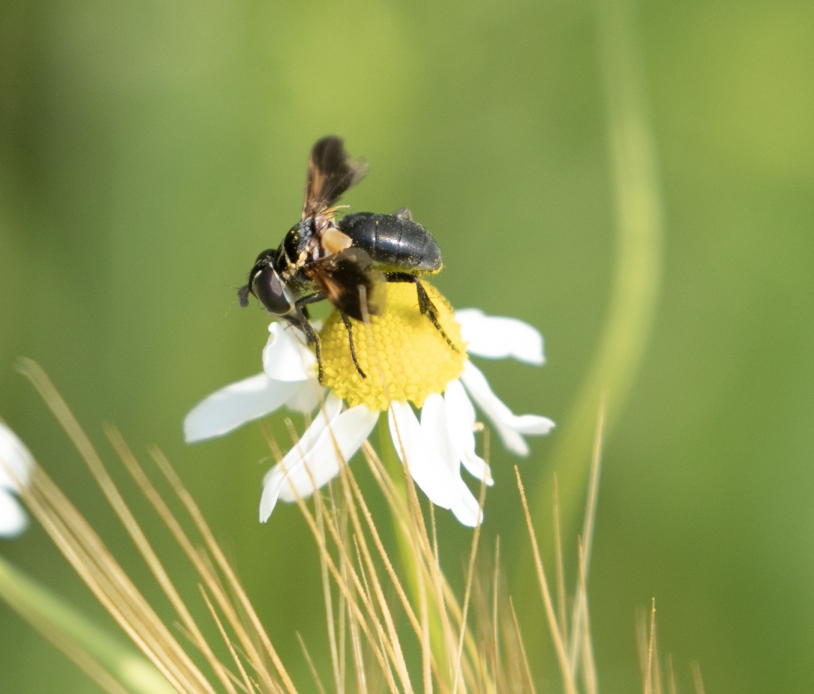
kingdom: Animalia
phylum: Arthropoda
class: Insecta
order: Diptera
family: Tachinidae
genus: Trichopoda
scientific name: Trichopoda pictipennis
